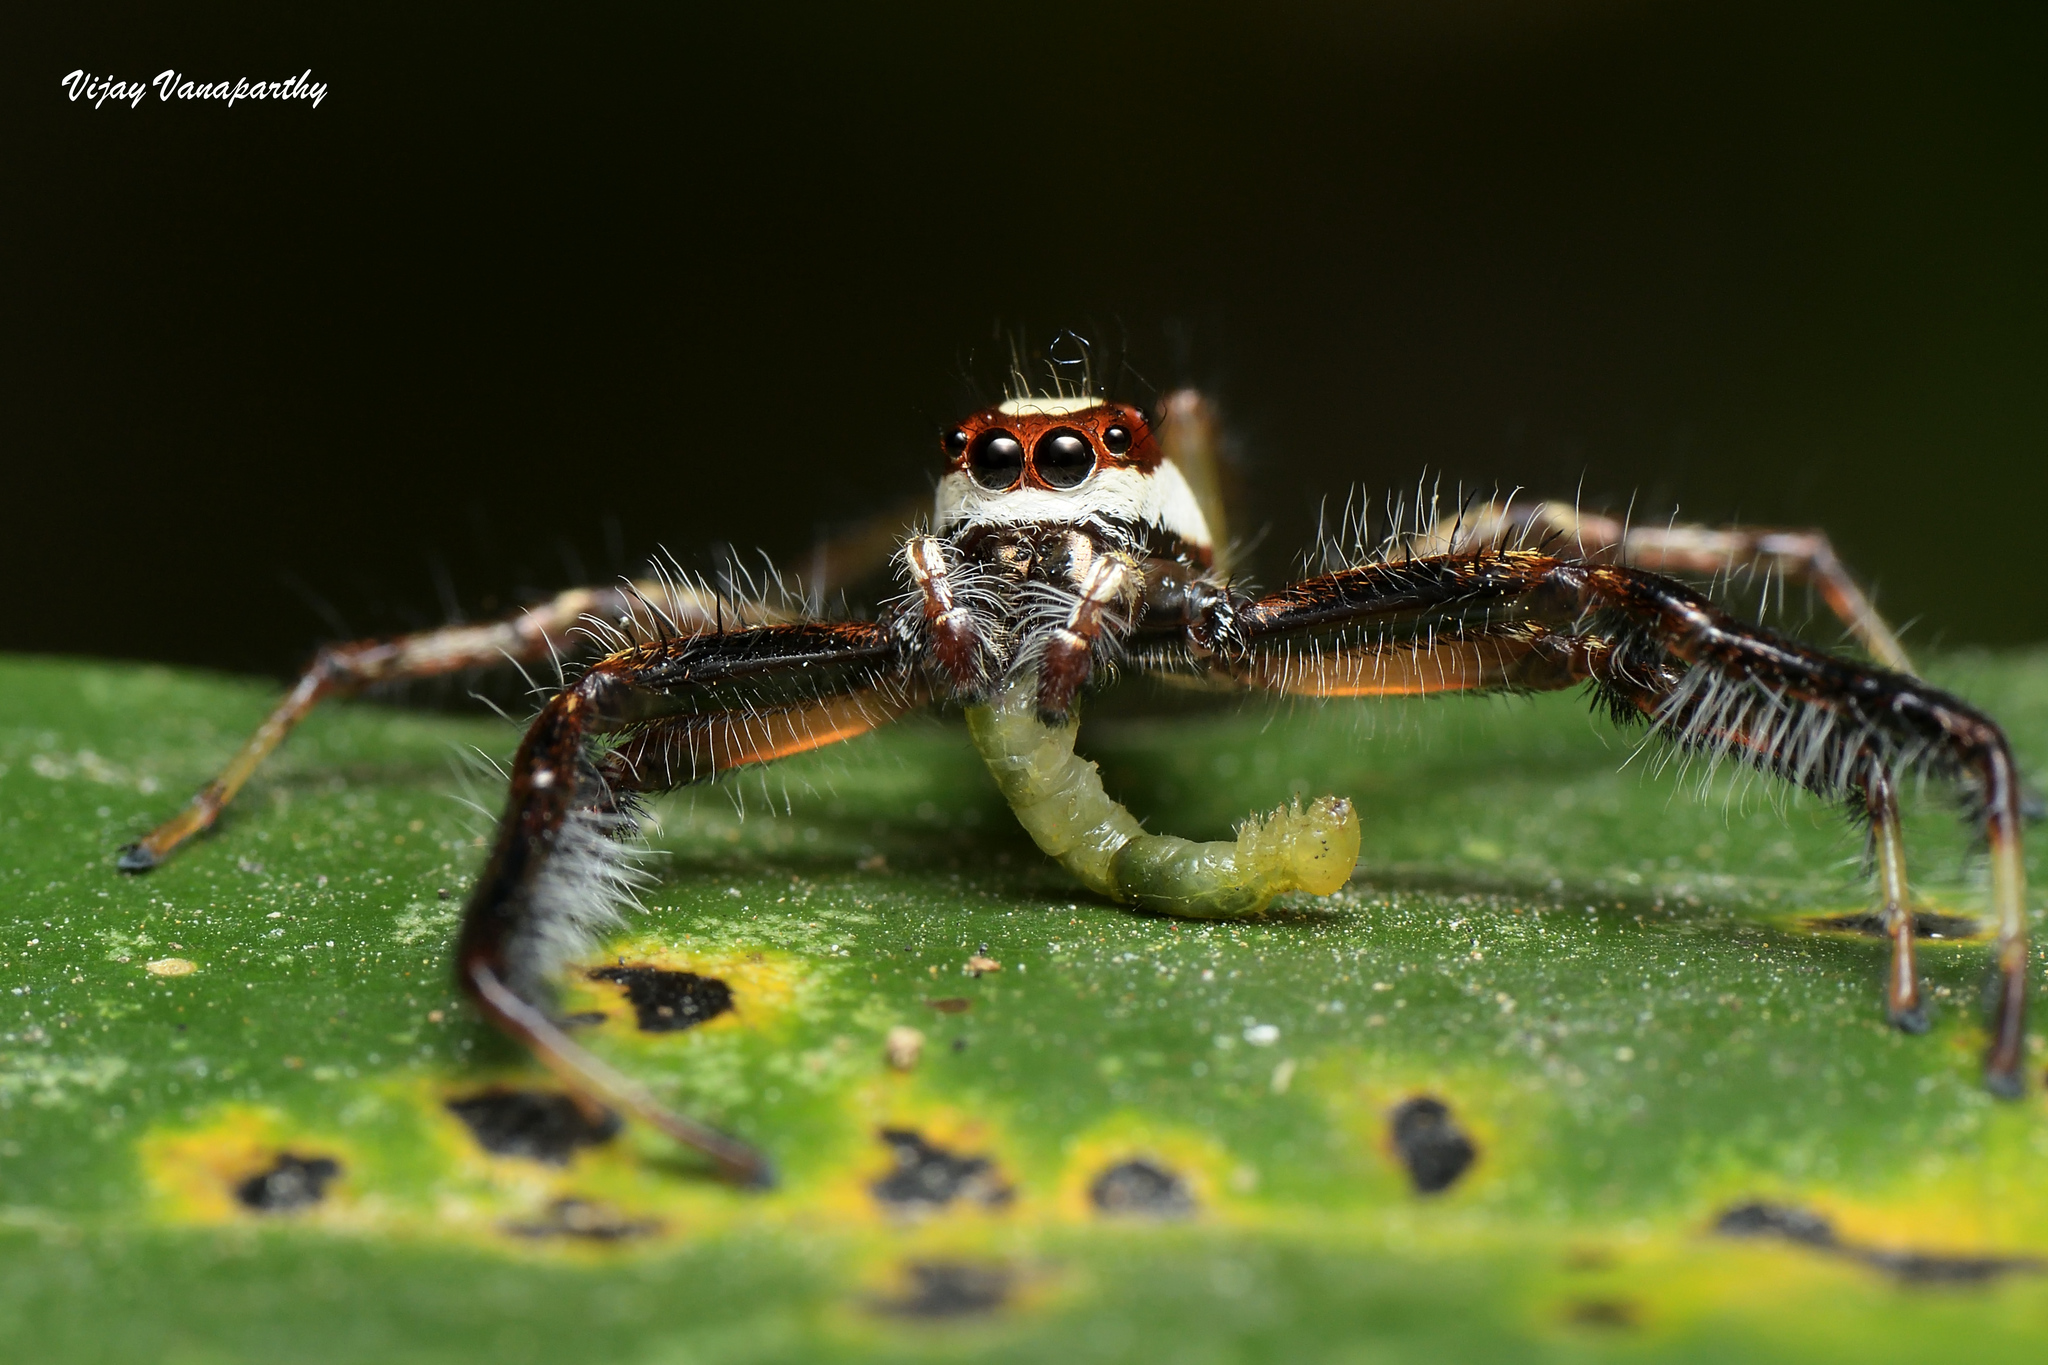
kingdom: Animalia
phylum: Arthropoda
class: Arachnida
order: Araneae
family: Salticidae
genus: Telamonia
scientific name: Telamonia dimidiata
